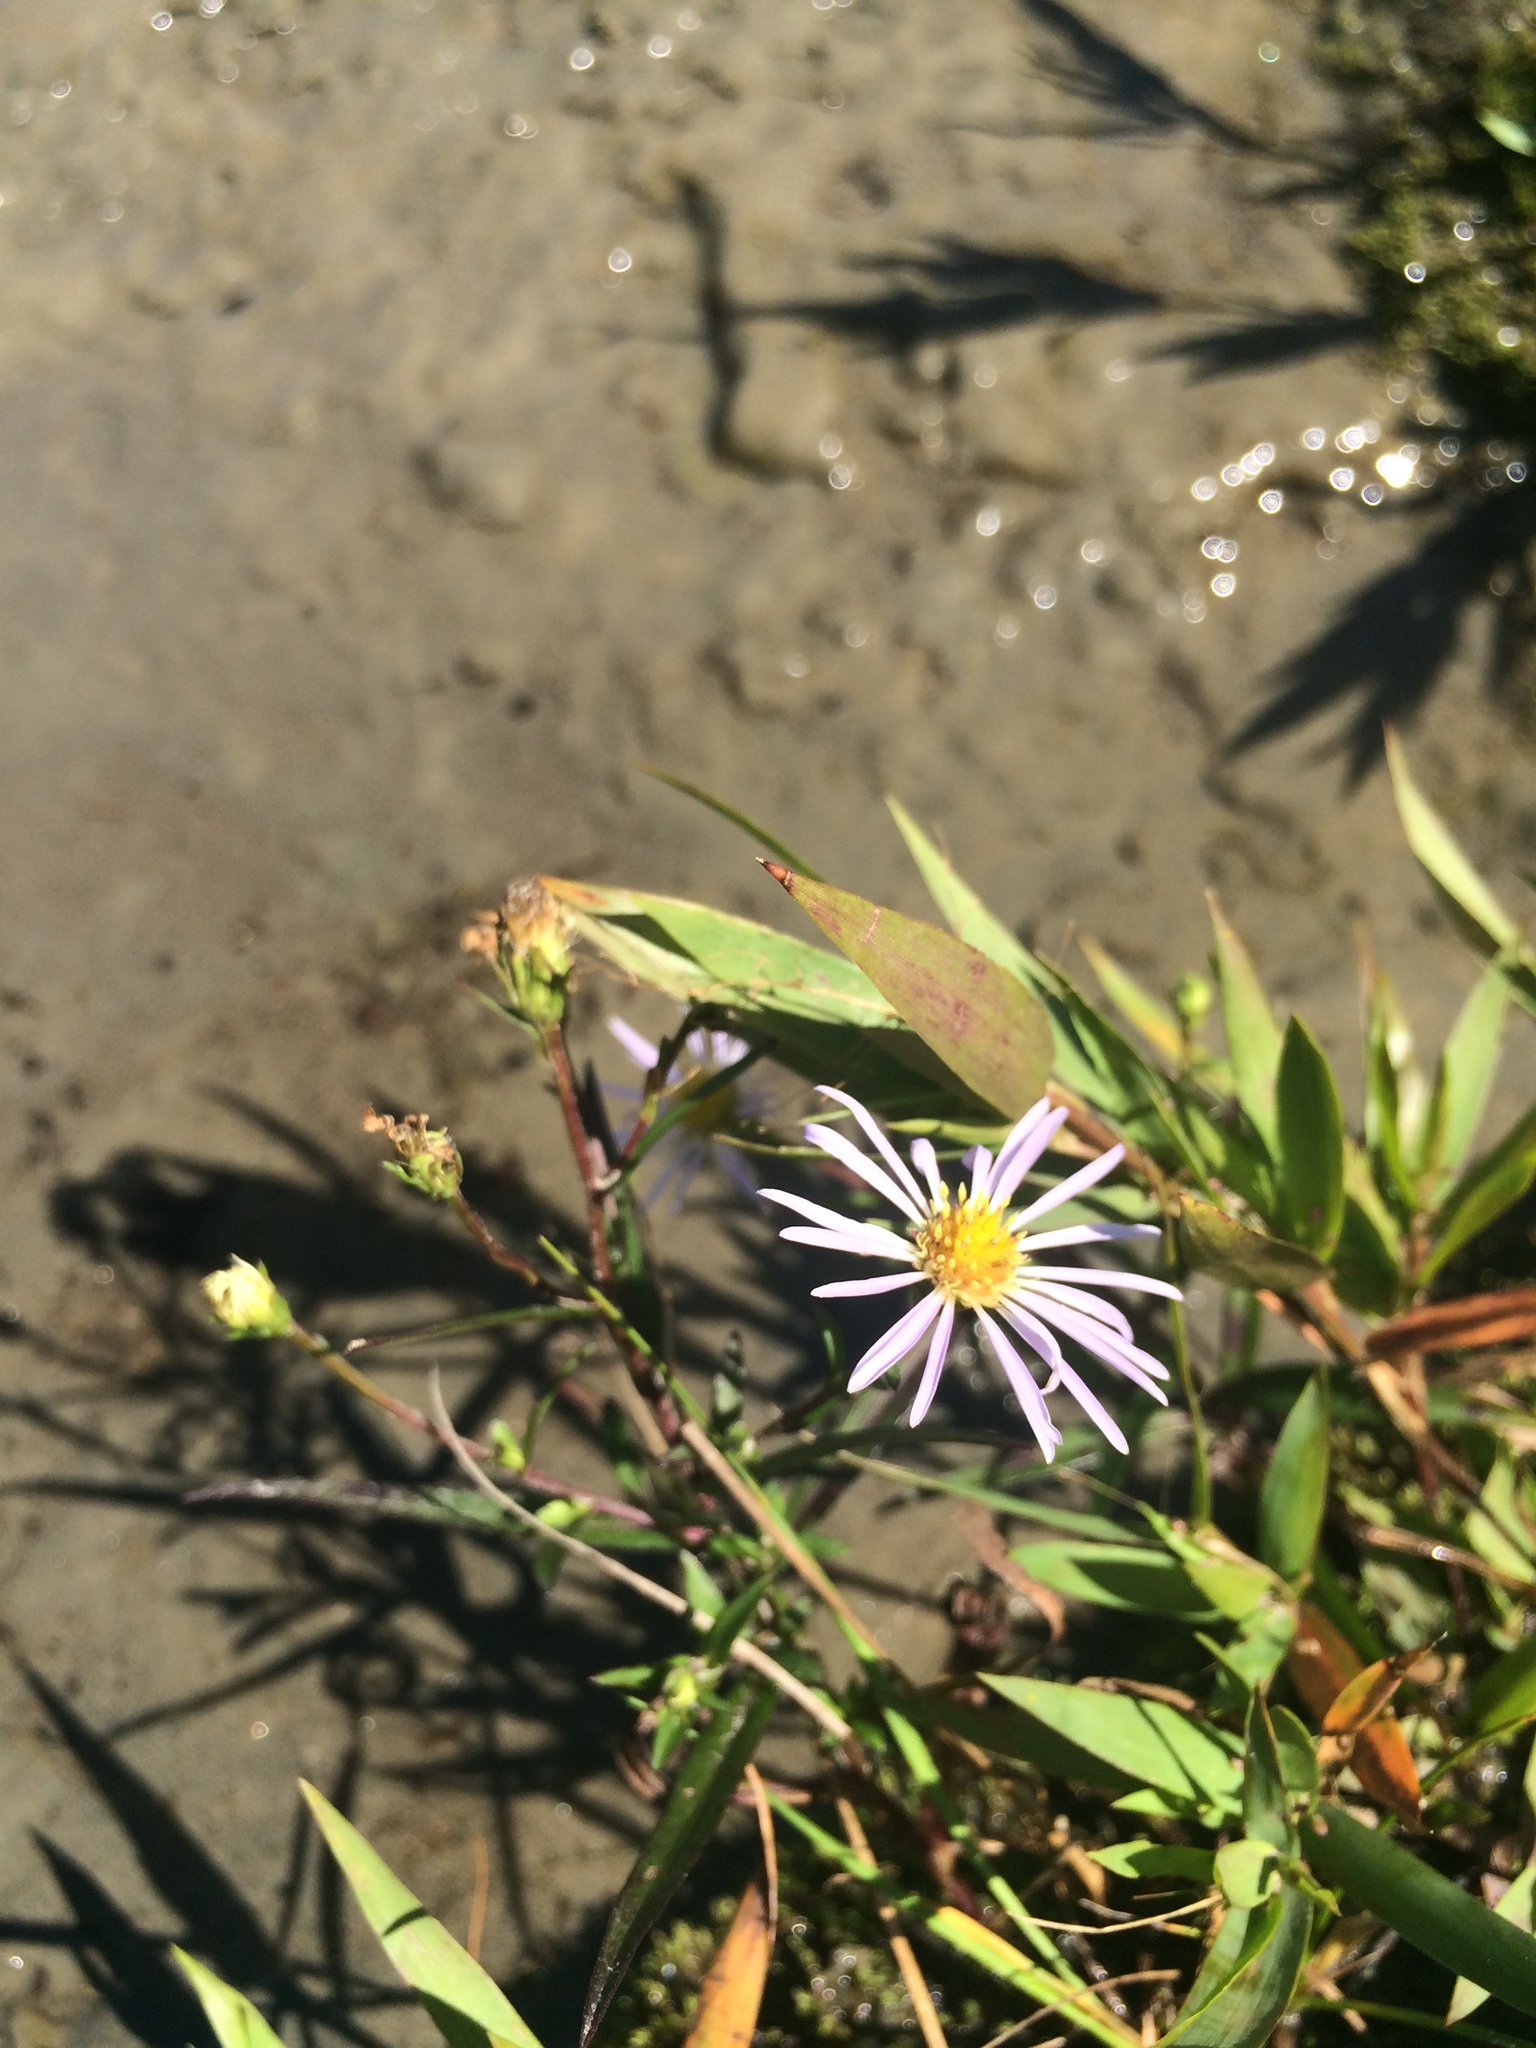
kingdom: Plantae
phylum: Tracheophyta
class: Magnoliopsida
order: Asterales
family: Asteraceae
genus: Symphyotrichum
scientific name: Symphyotrichum novi-belgii
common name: Michaelmas daisy
